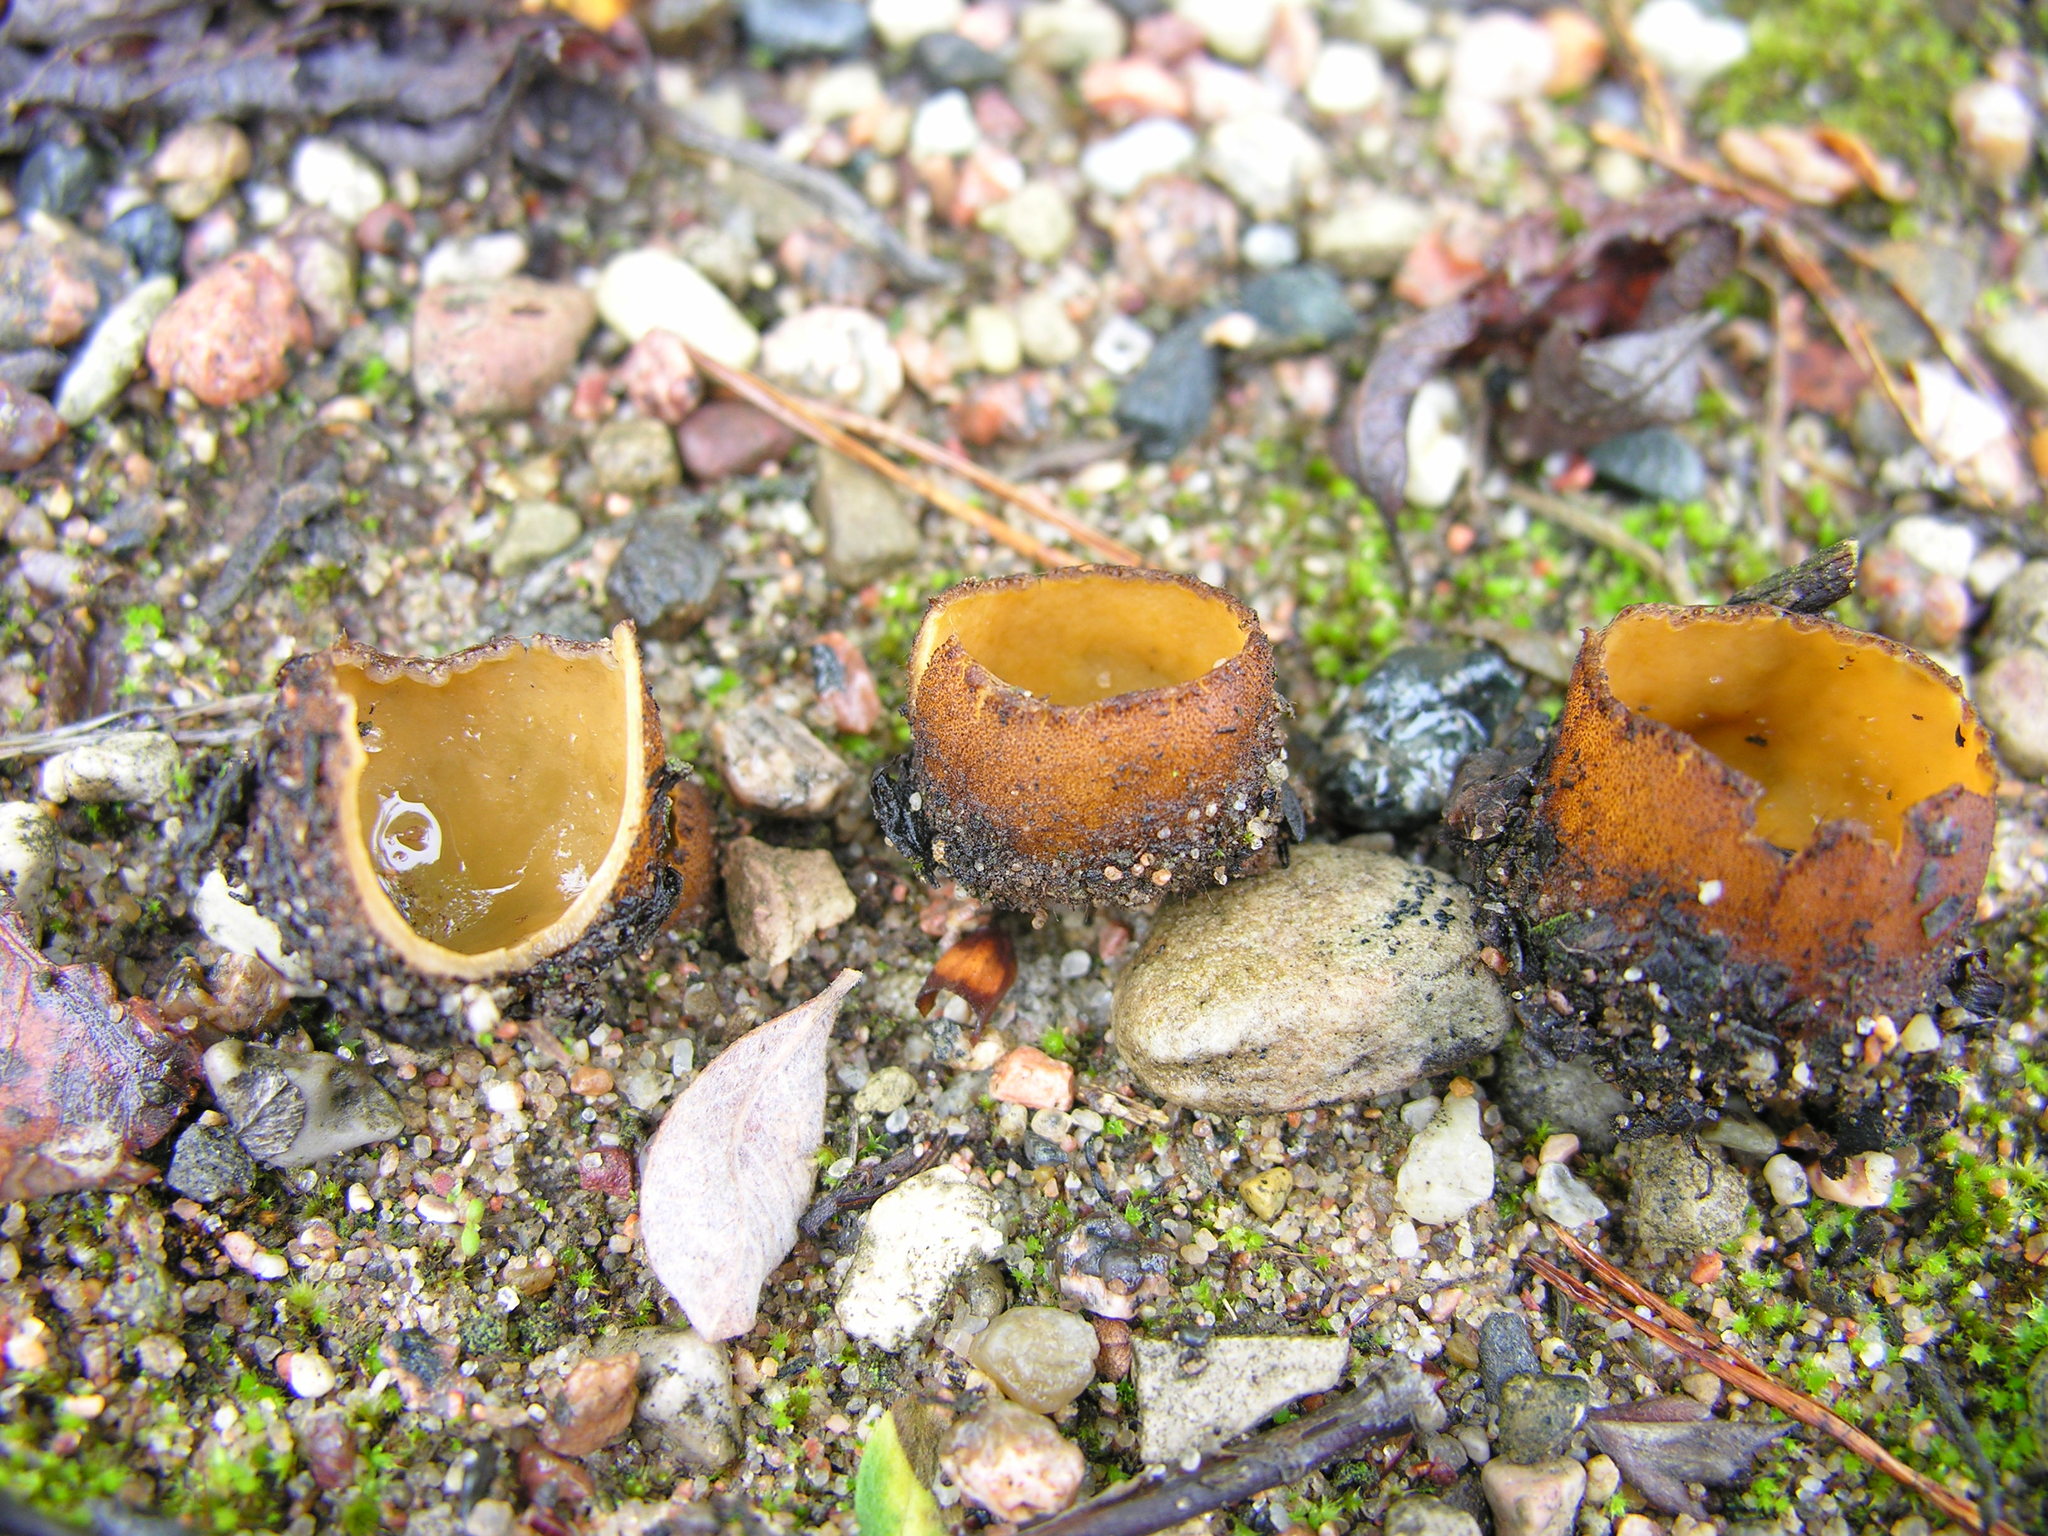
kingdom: Fungi
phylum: Ascomycota
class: Pezizomycetes
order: Pezizales
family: Pyronemataceae
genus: Hoffmannoscypha
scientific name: Hoffmannoscypha pellita
